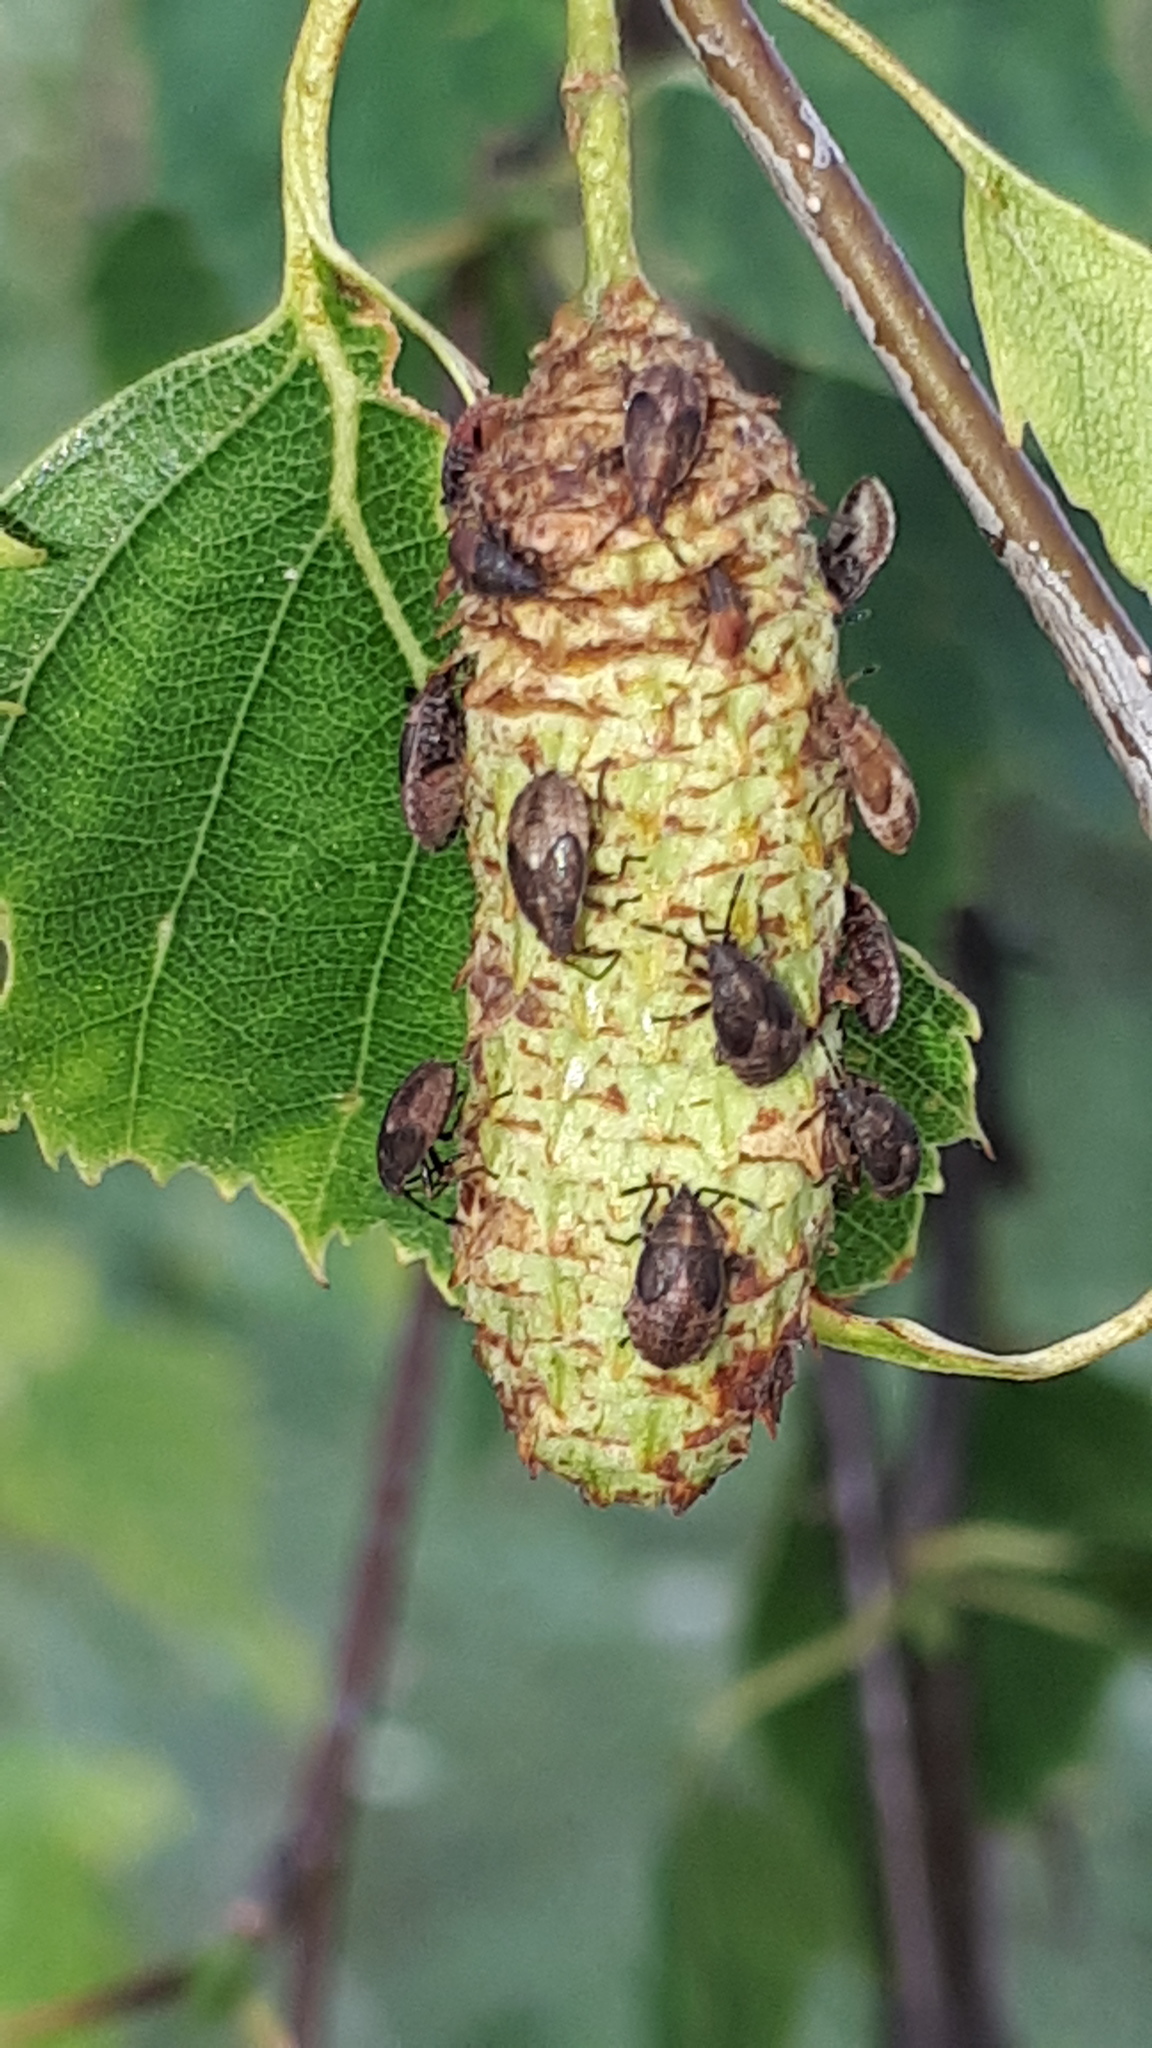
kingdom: Animalia
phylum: Arthropoda
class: Insecta
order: Hemiptera
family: Lygaeidae
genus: Kleidocerys
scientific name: Kleidocerys resedae
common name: Birch catkin bug
